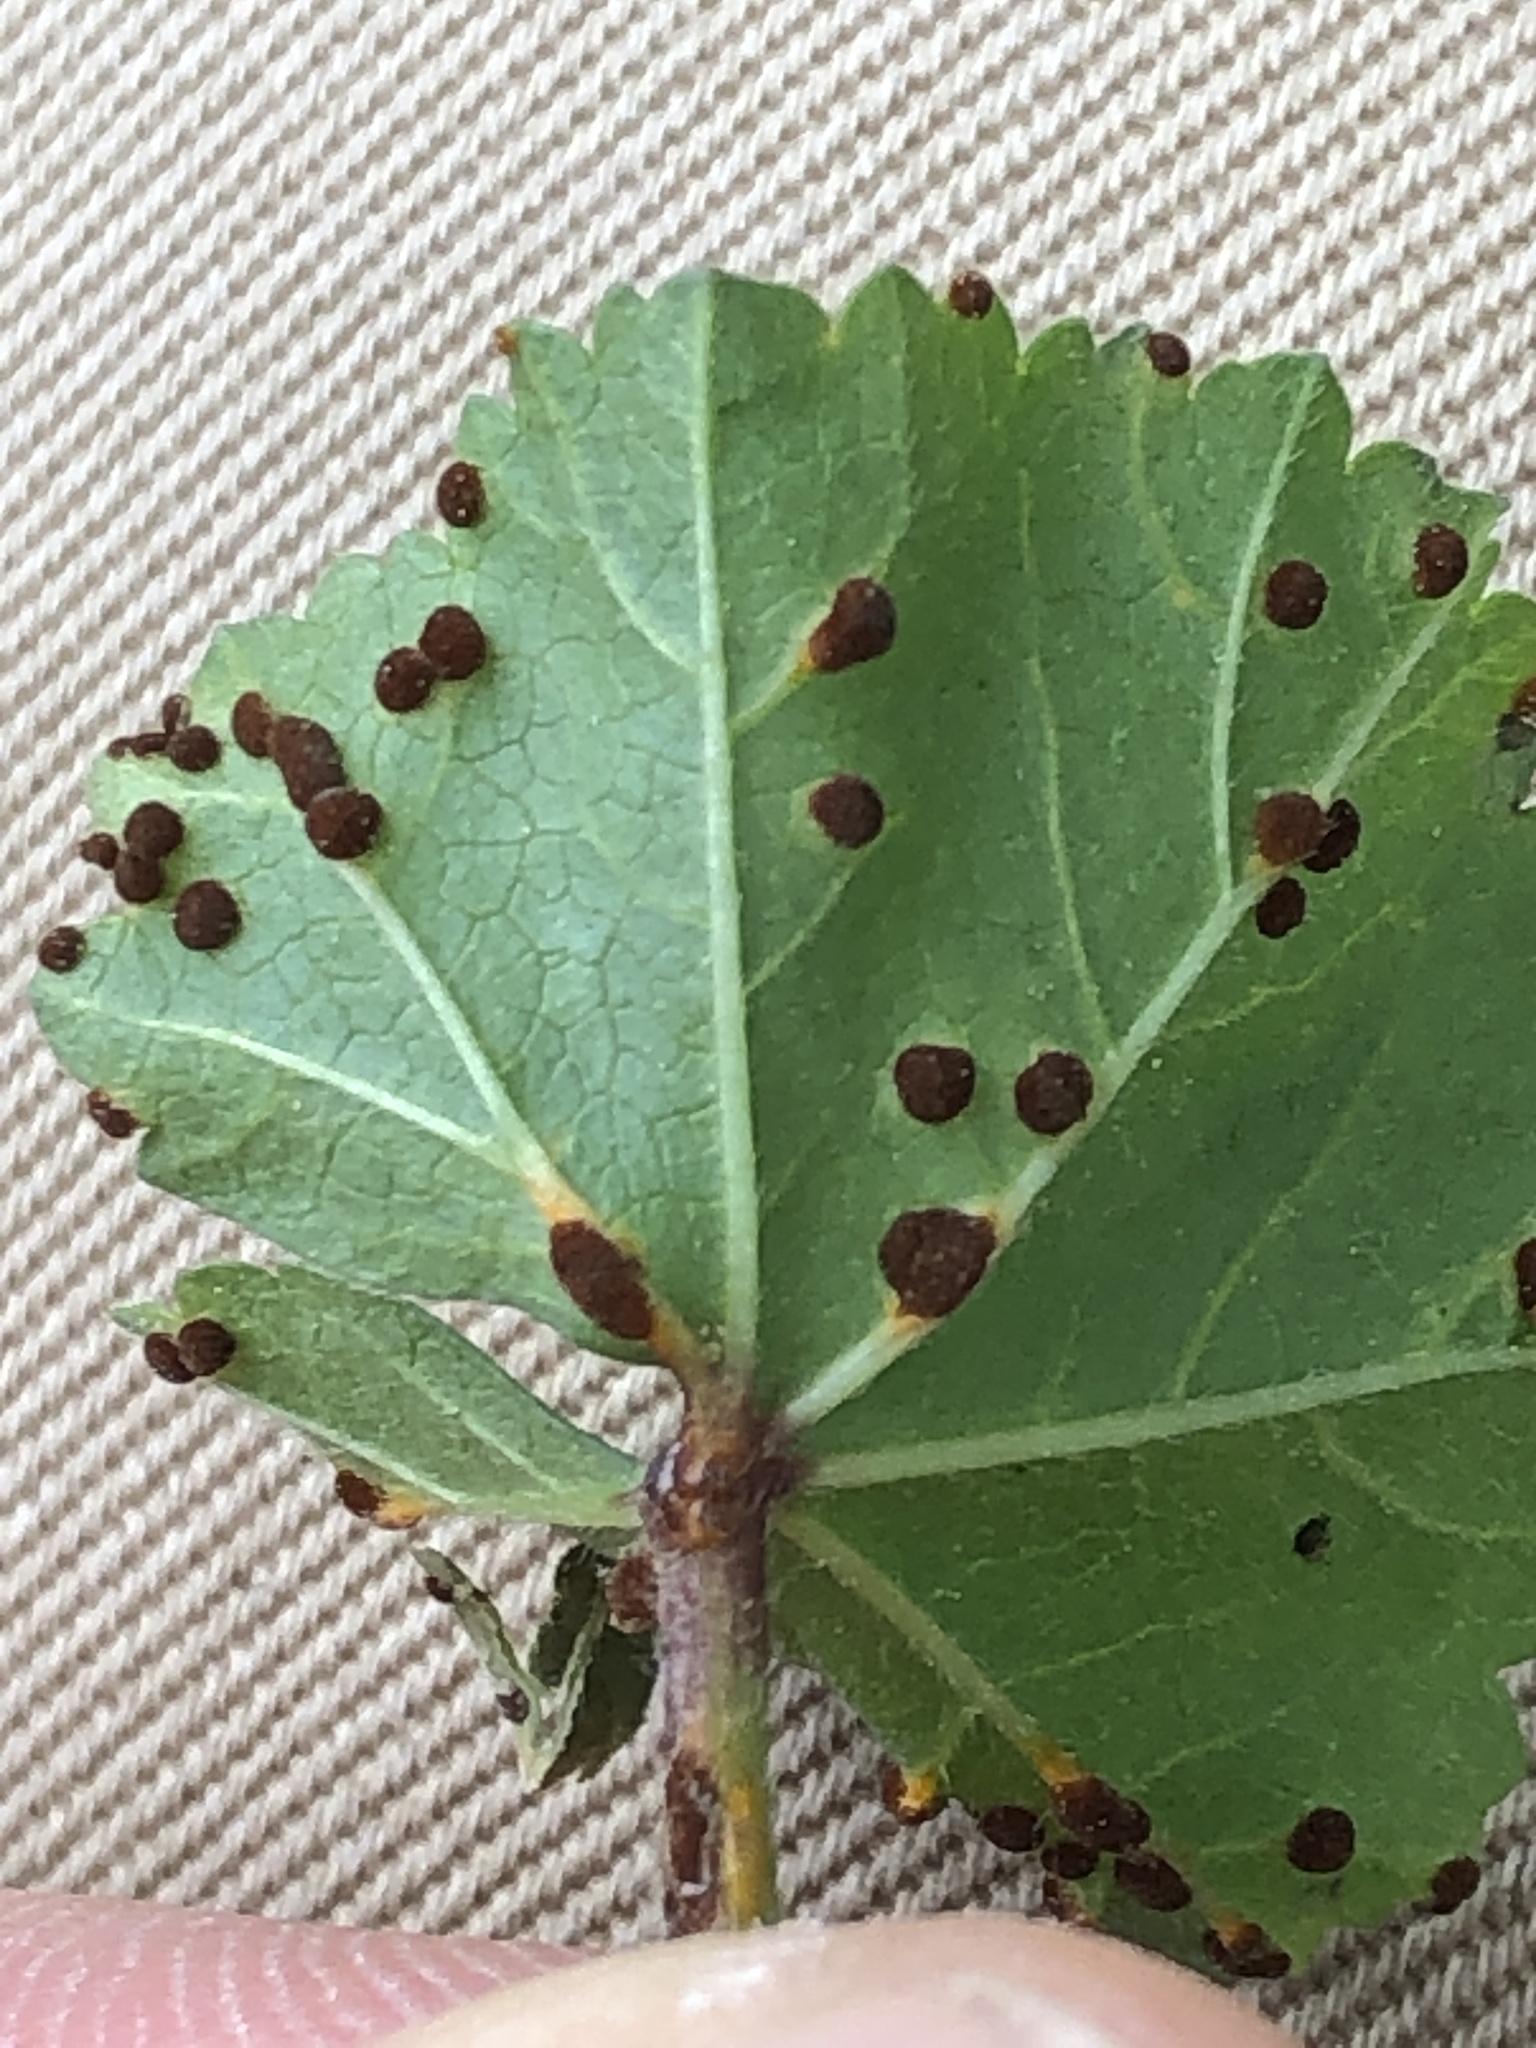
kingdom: Fungi
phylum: Basidiomycota
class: Pucciniomycetes
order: Pucciniales
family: Pucciniaceae
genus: Puccinia
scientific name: Puccinia malvacearum
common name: Hollyhock rust
